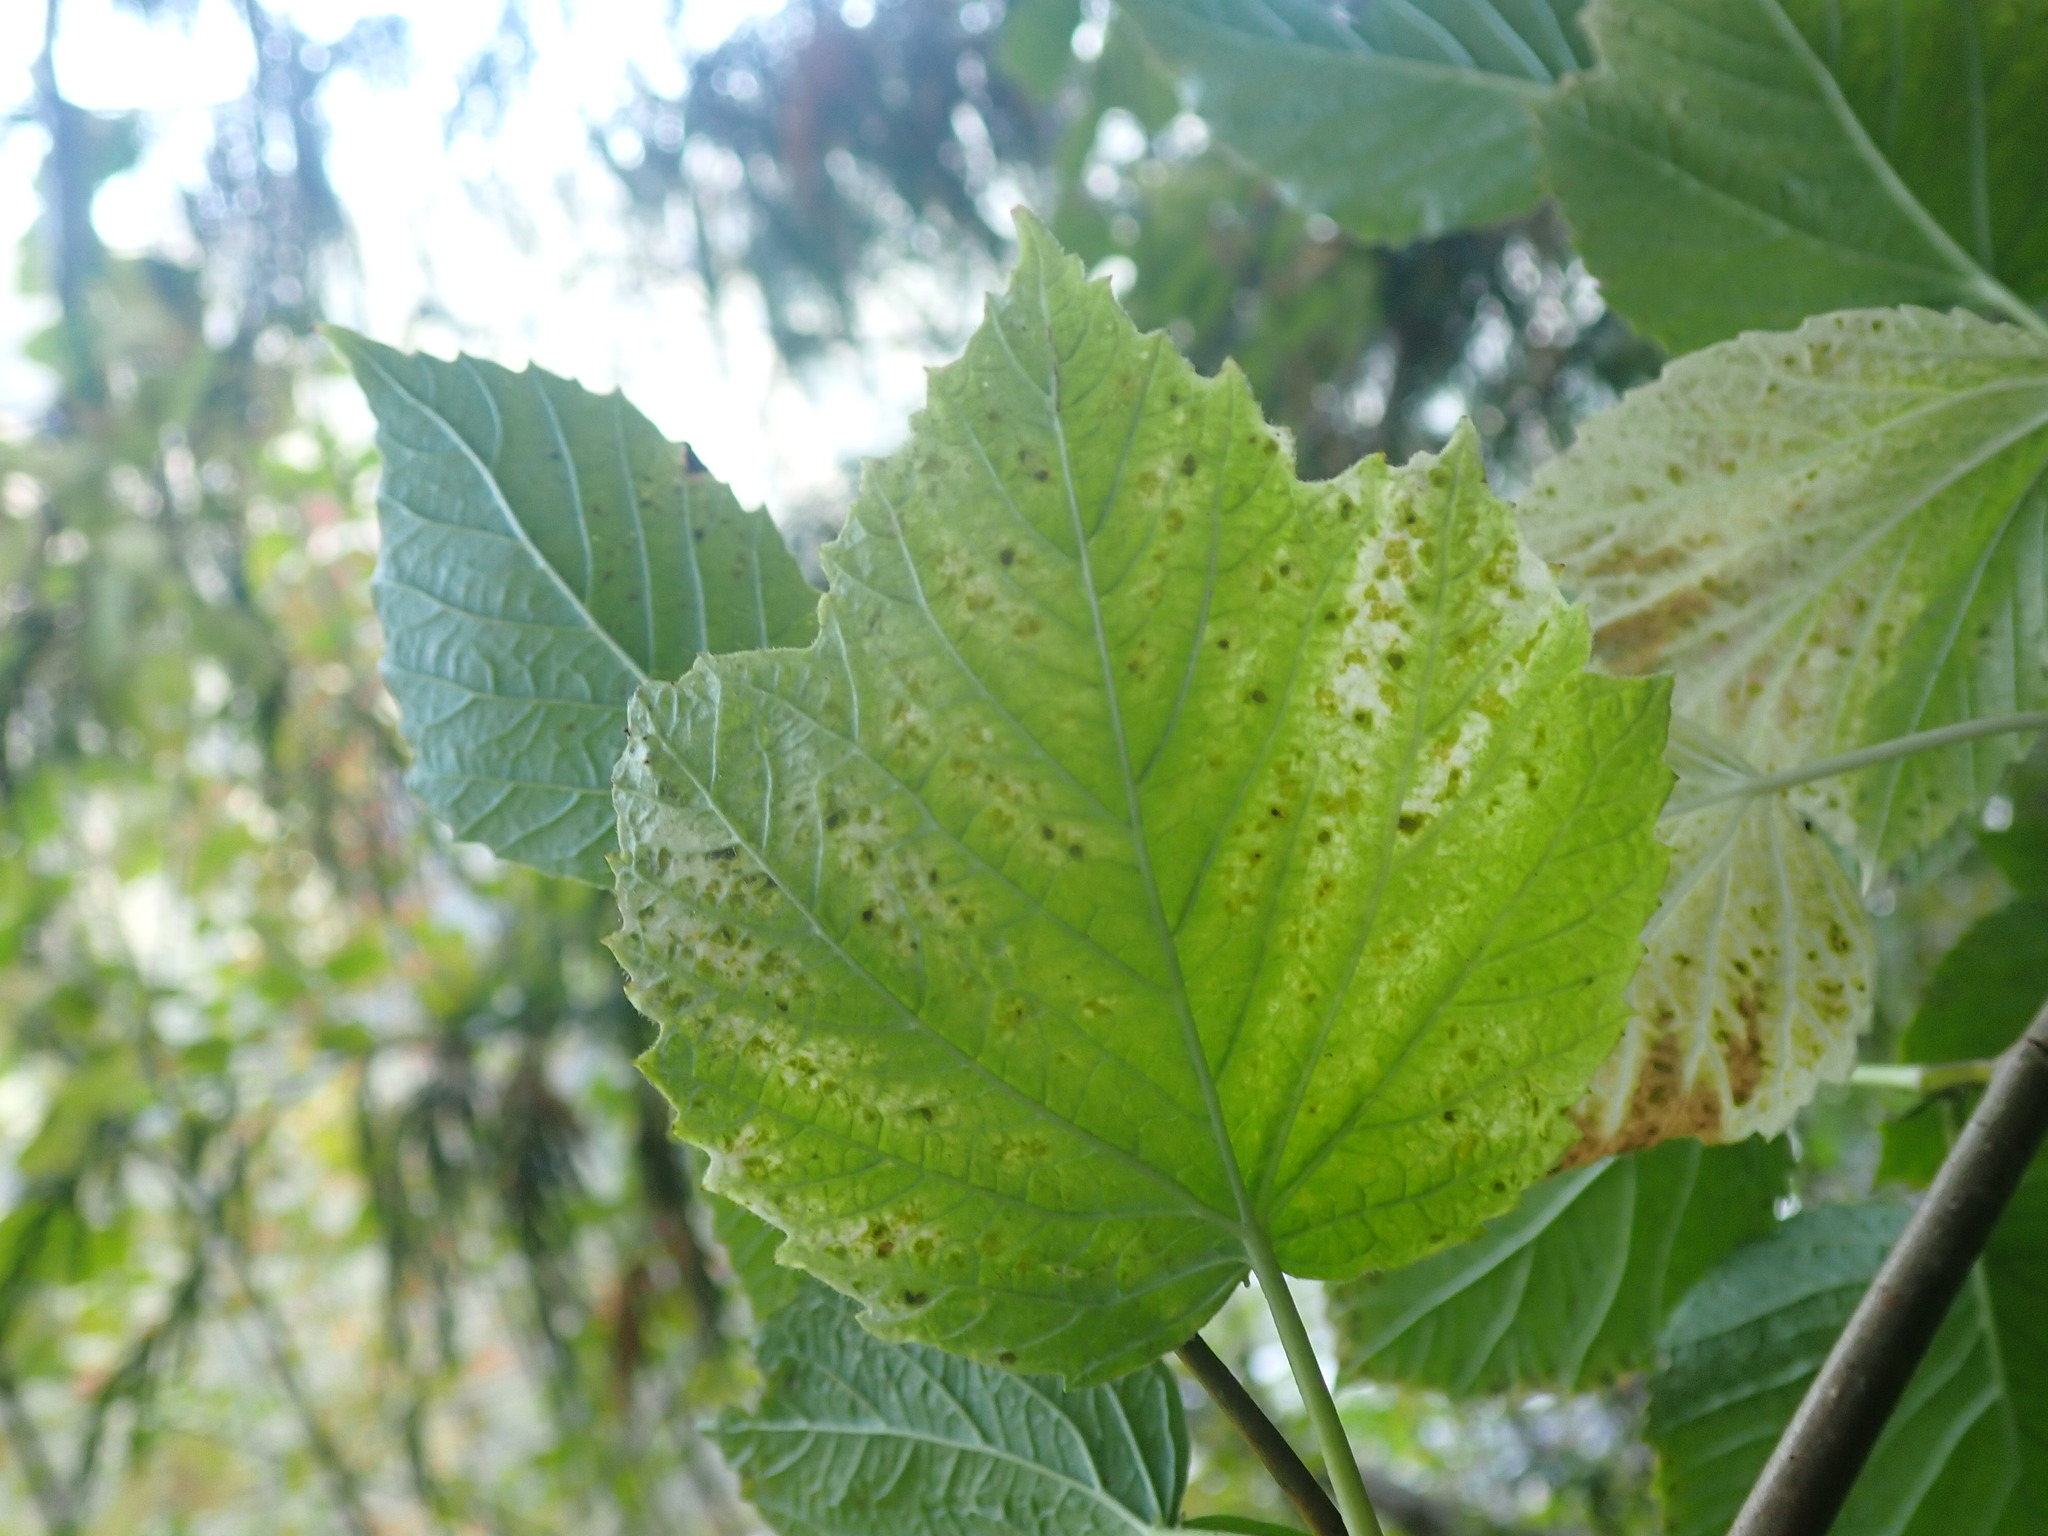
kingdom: Plantae
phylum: Tracheophyta
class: Magnoliopsida
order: Dipsacales
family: Viburnaceae
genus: Viburnum
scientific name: Viburnum edule
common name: Mooseberry
